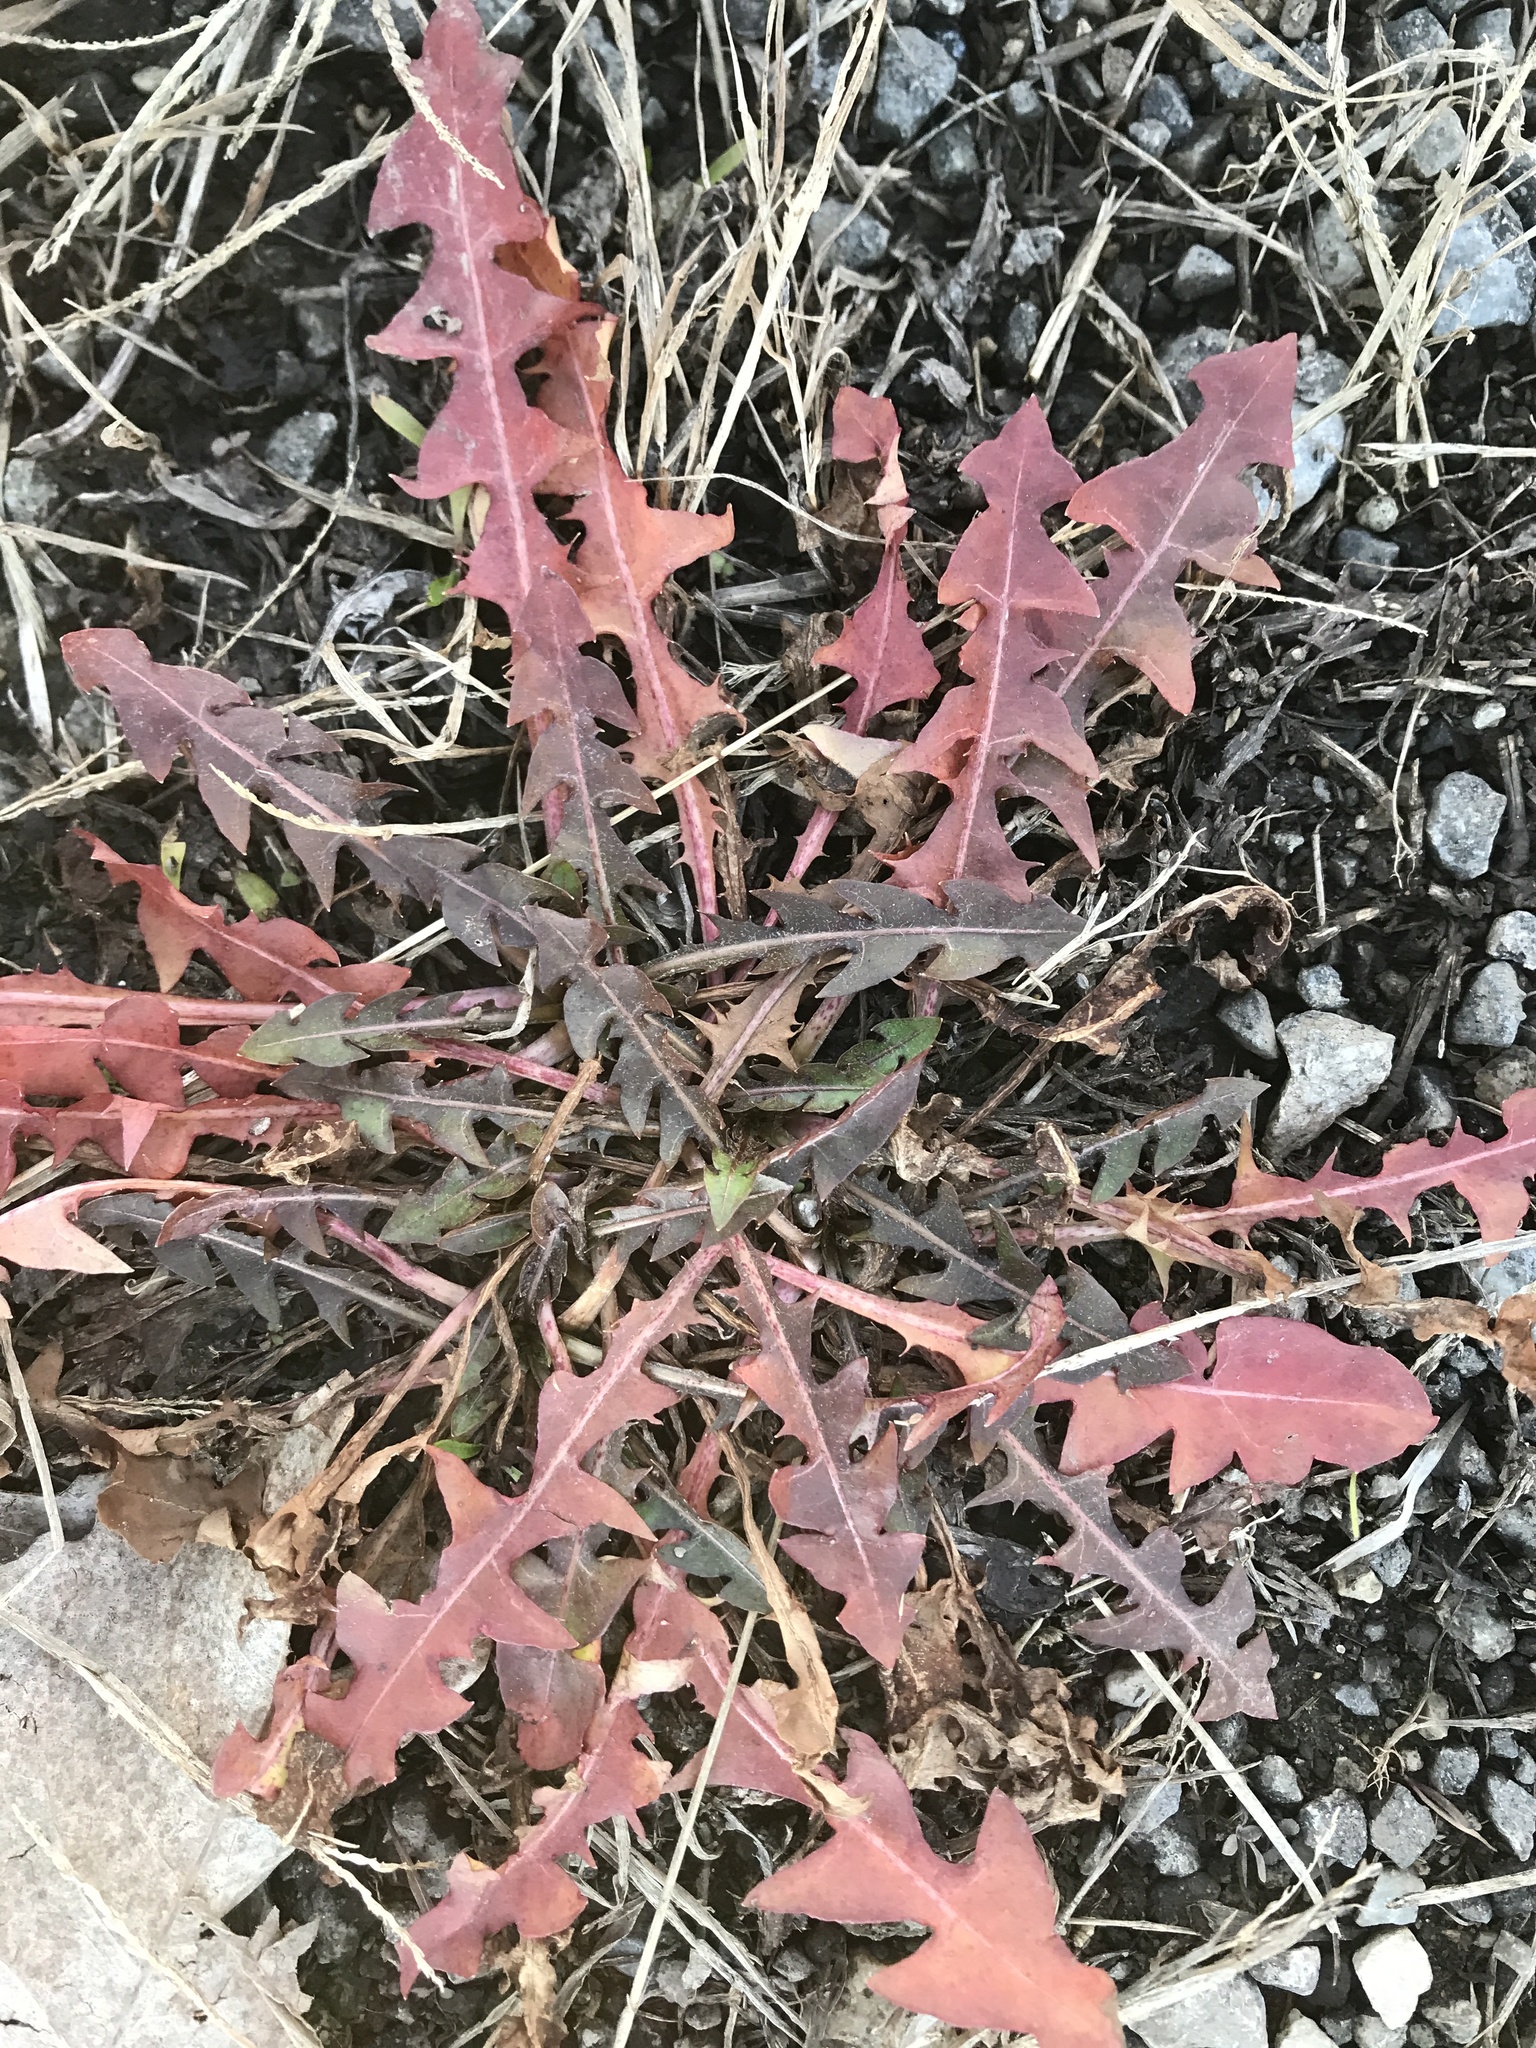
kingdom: Plantae
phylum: Tracheophyta
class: Magnoliopsida
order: Asterales
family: Asteraceae
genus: Taraxacum
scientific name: Taraxacum officinale
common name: Common dandelion
